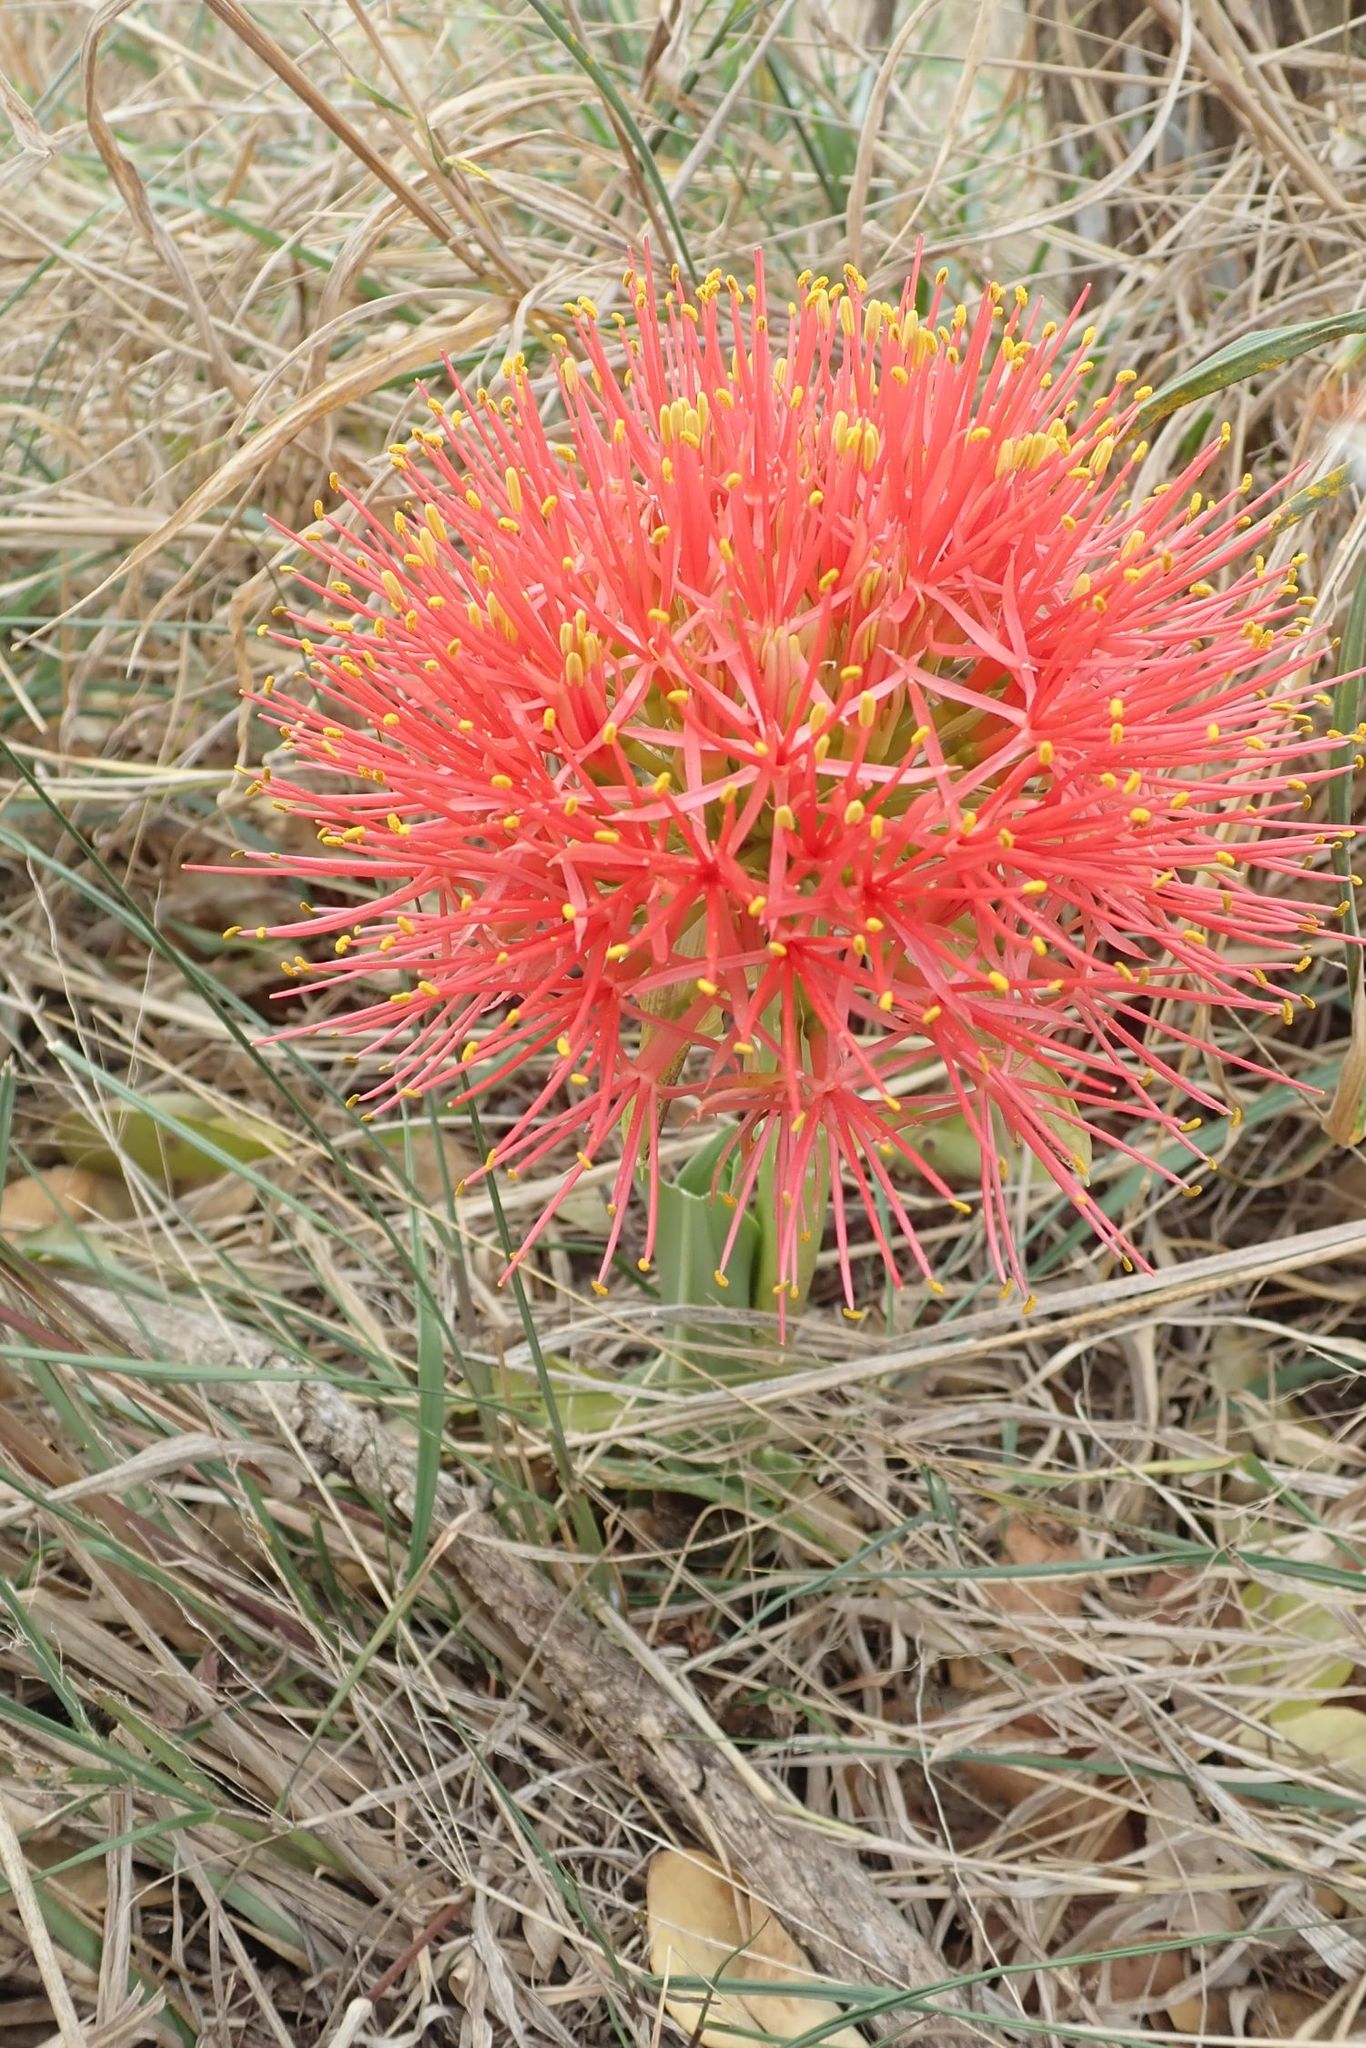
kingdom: Plantae
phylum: Tracheophyta
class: Liliopsida
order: Asparagales
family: Amaryllidaceae
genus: Scadoxus
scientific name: Scadoxus multiflorus
